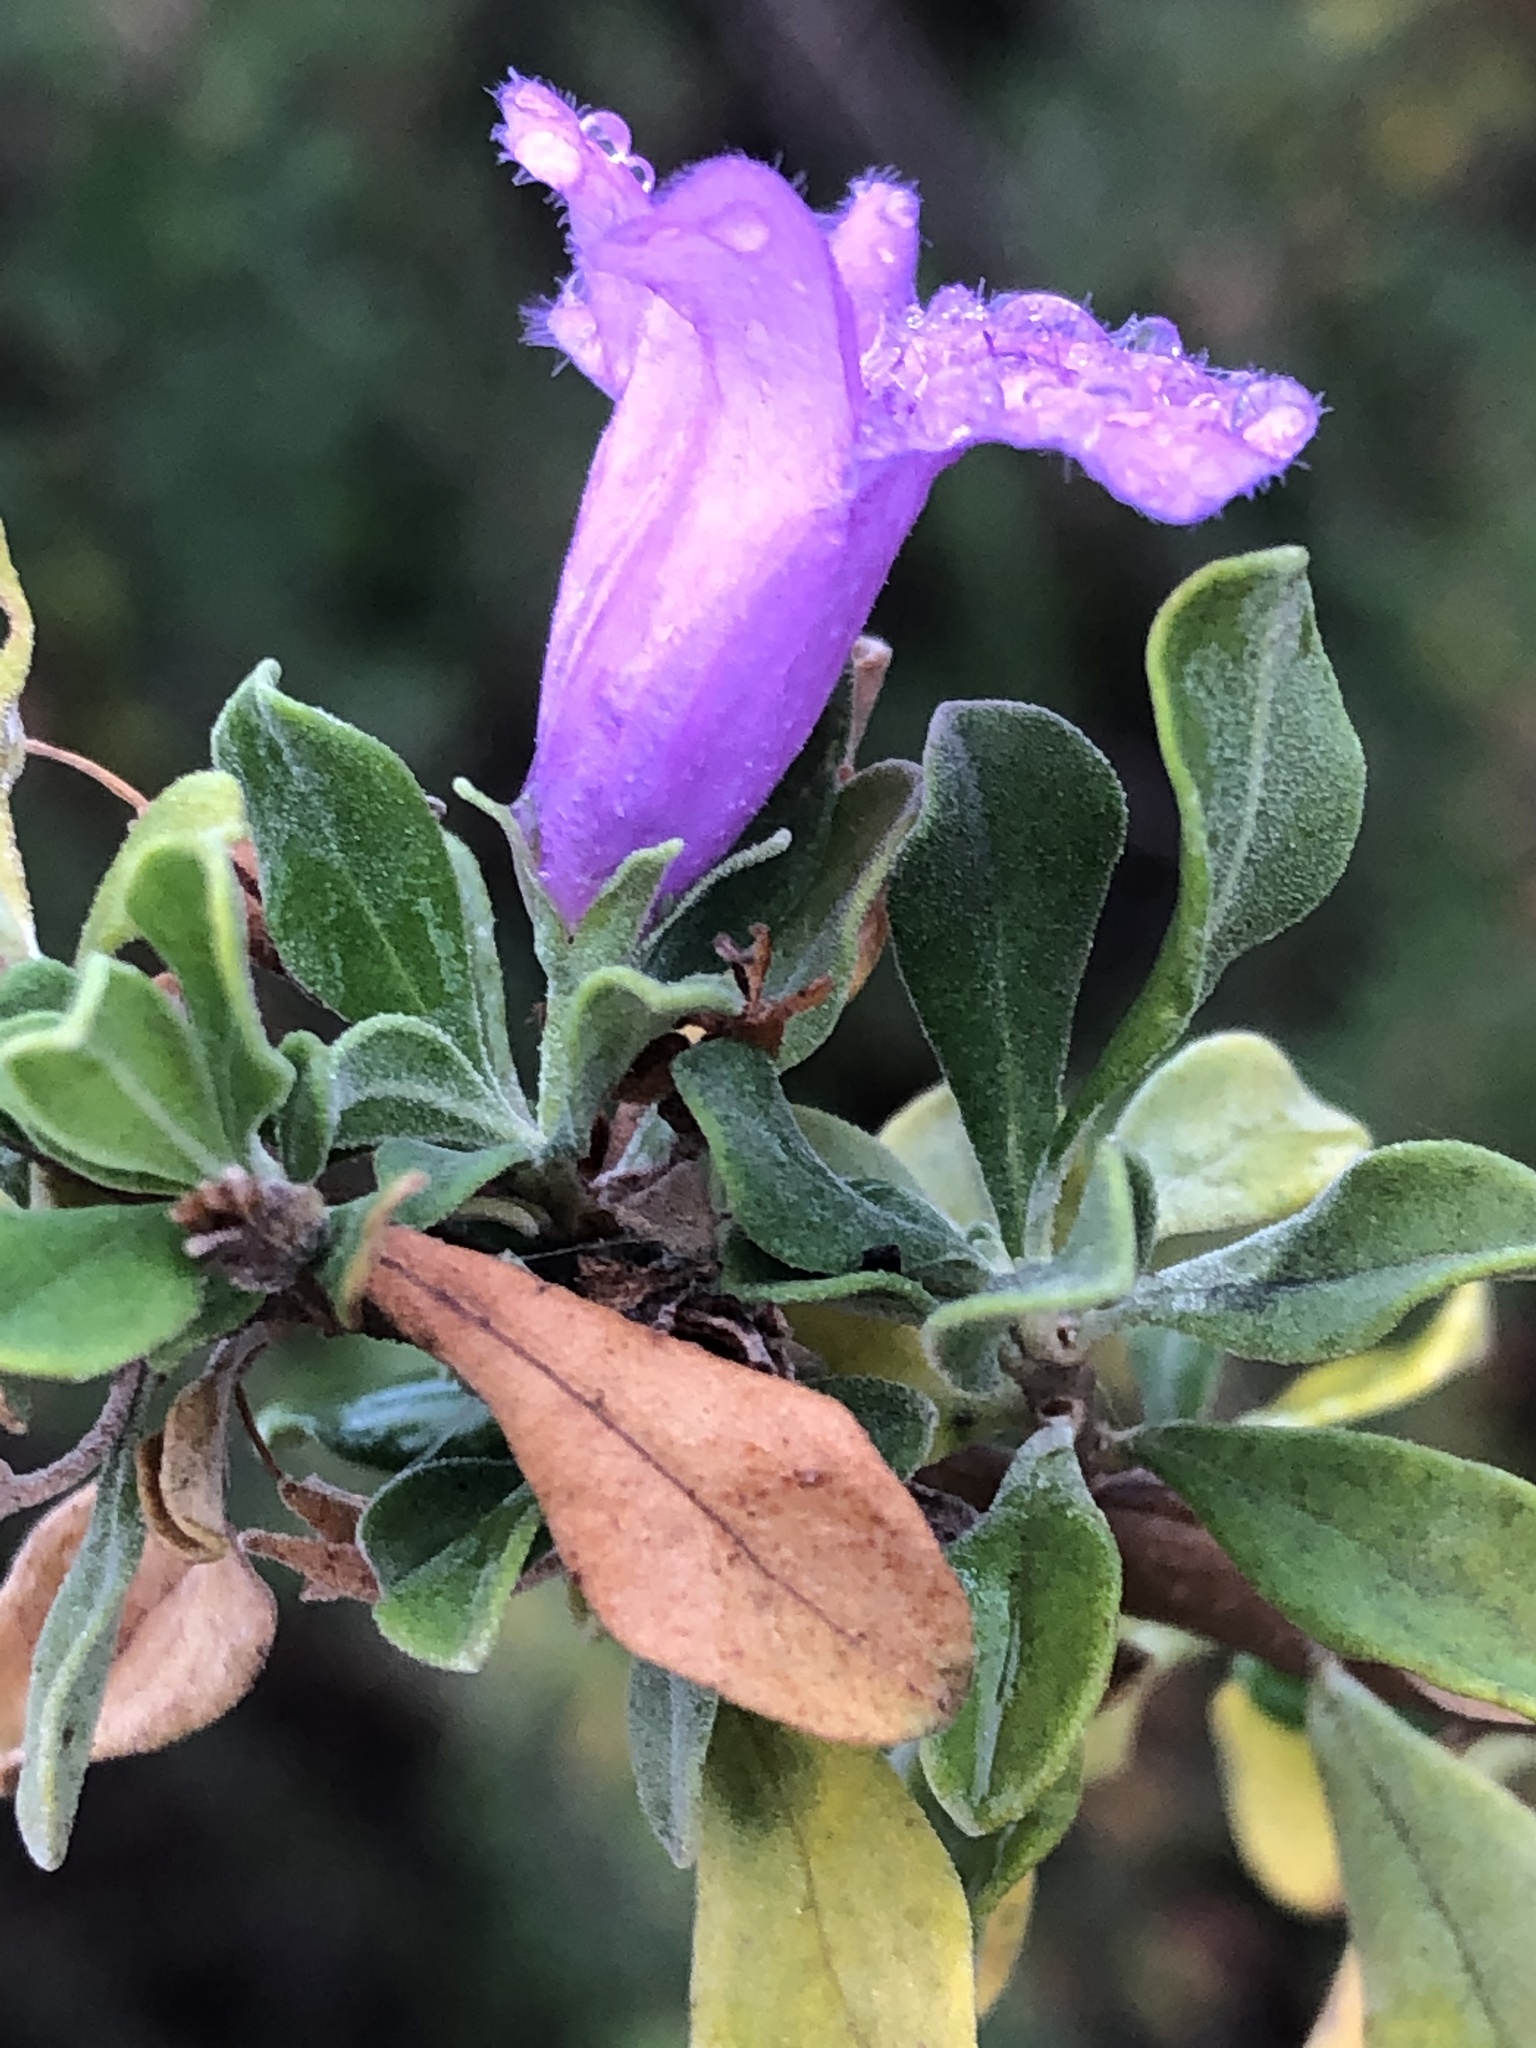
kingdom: Plantae
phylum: Tracheophyta
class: Magnoliopsida
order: Lamiales
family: Scrophulariaceae
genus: Leucophyllum
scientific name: Leucophyllum frutescens
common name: Texas silverleaf
